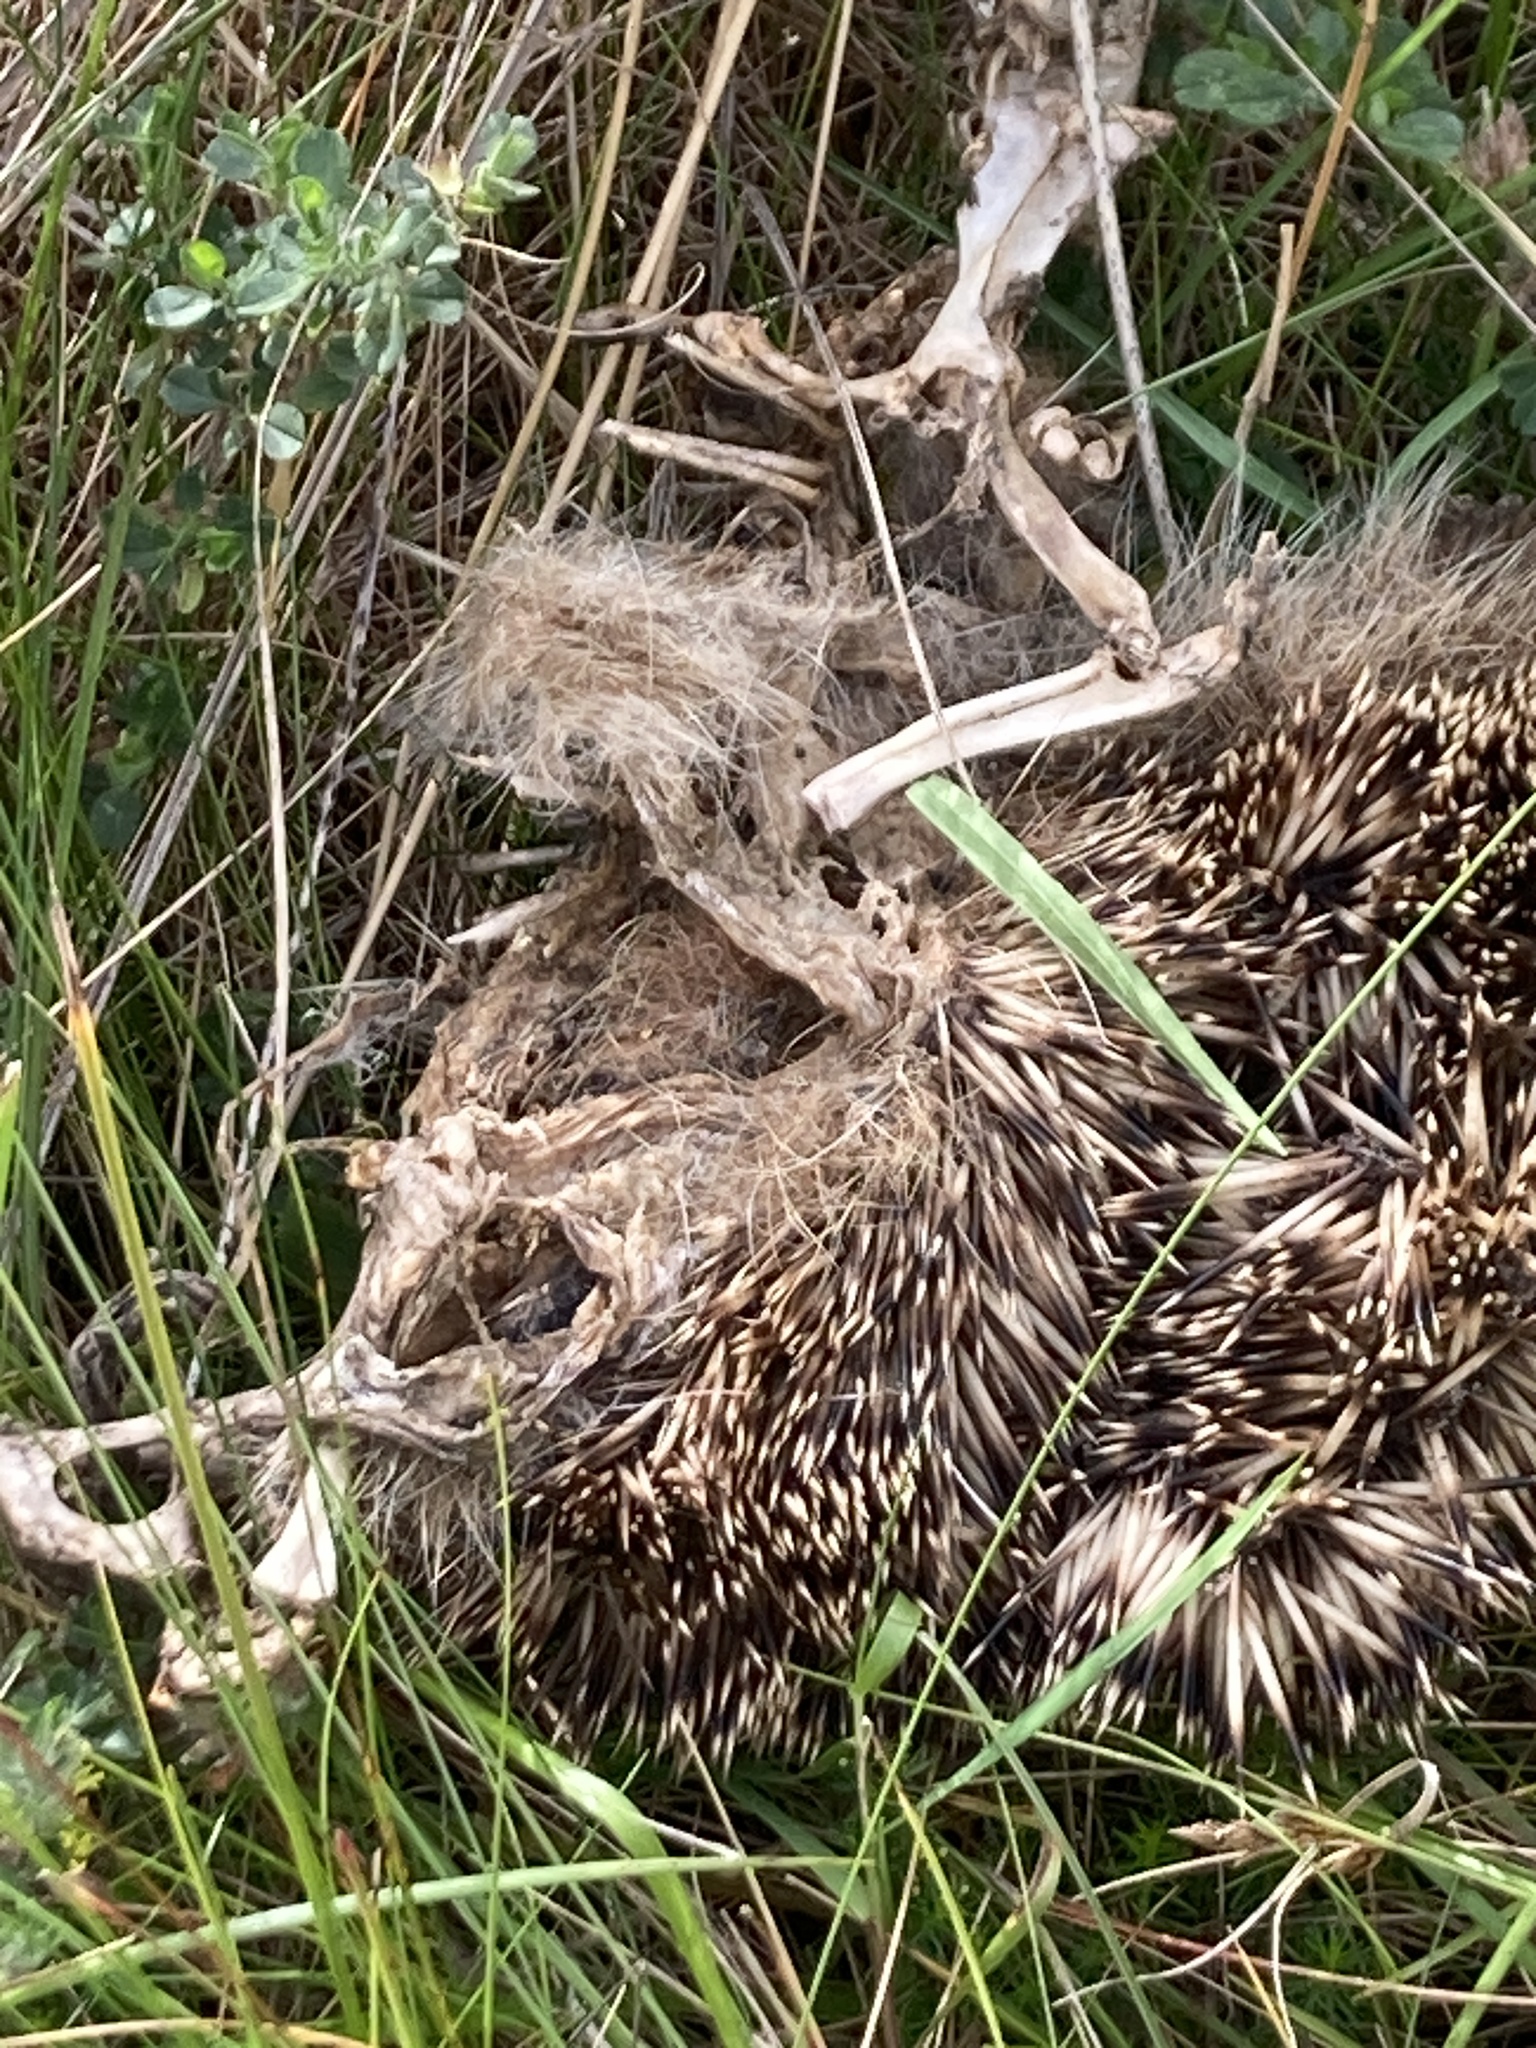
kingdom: Animalia
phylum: Chordata
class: Mammalia
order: Erinaceomorpha
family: Erinaceidae
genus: Erinaceus
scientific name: Erinaceus europaeus
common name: West european hedgehog
